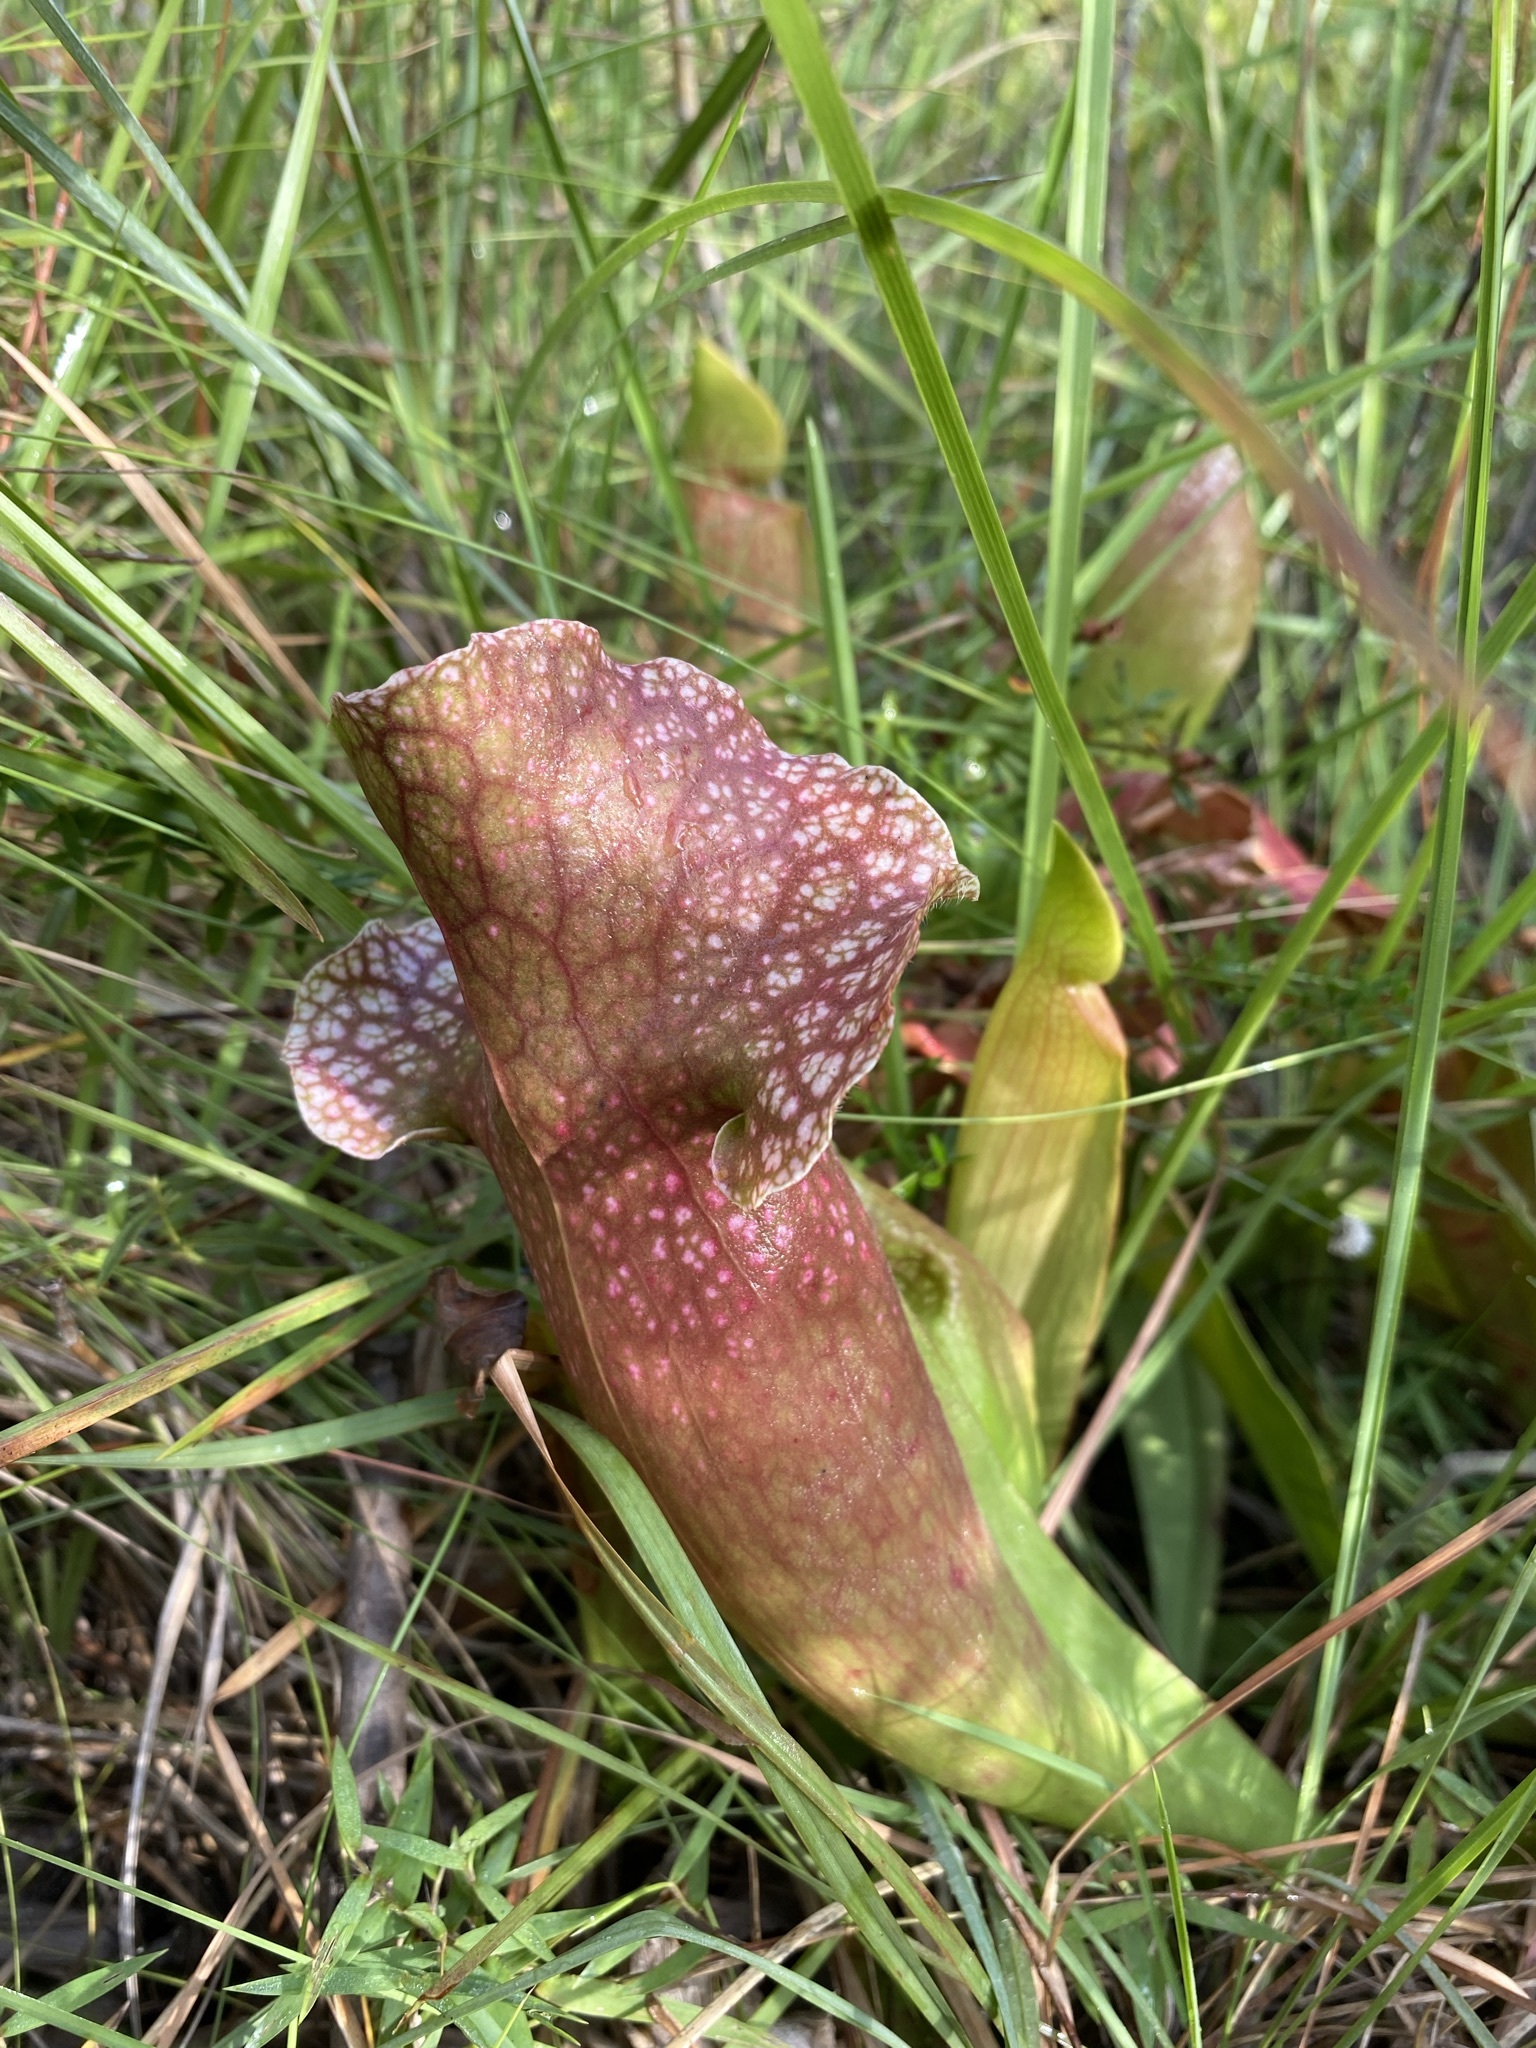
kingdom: Plantae
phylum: Tracheophyta
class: Magnoliopsida
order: Ericales
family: Sarraceniaceae
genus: Sarracenia
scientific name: Sarracenia mitchelliana
